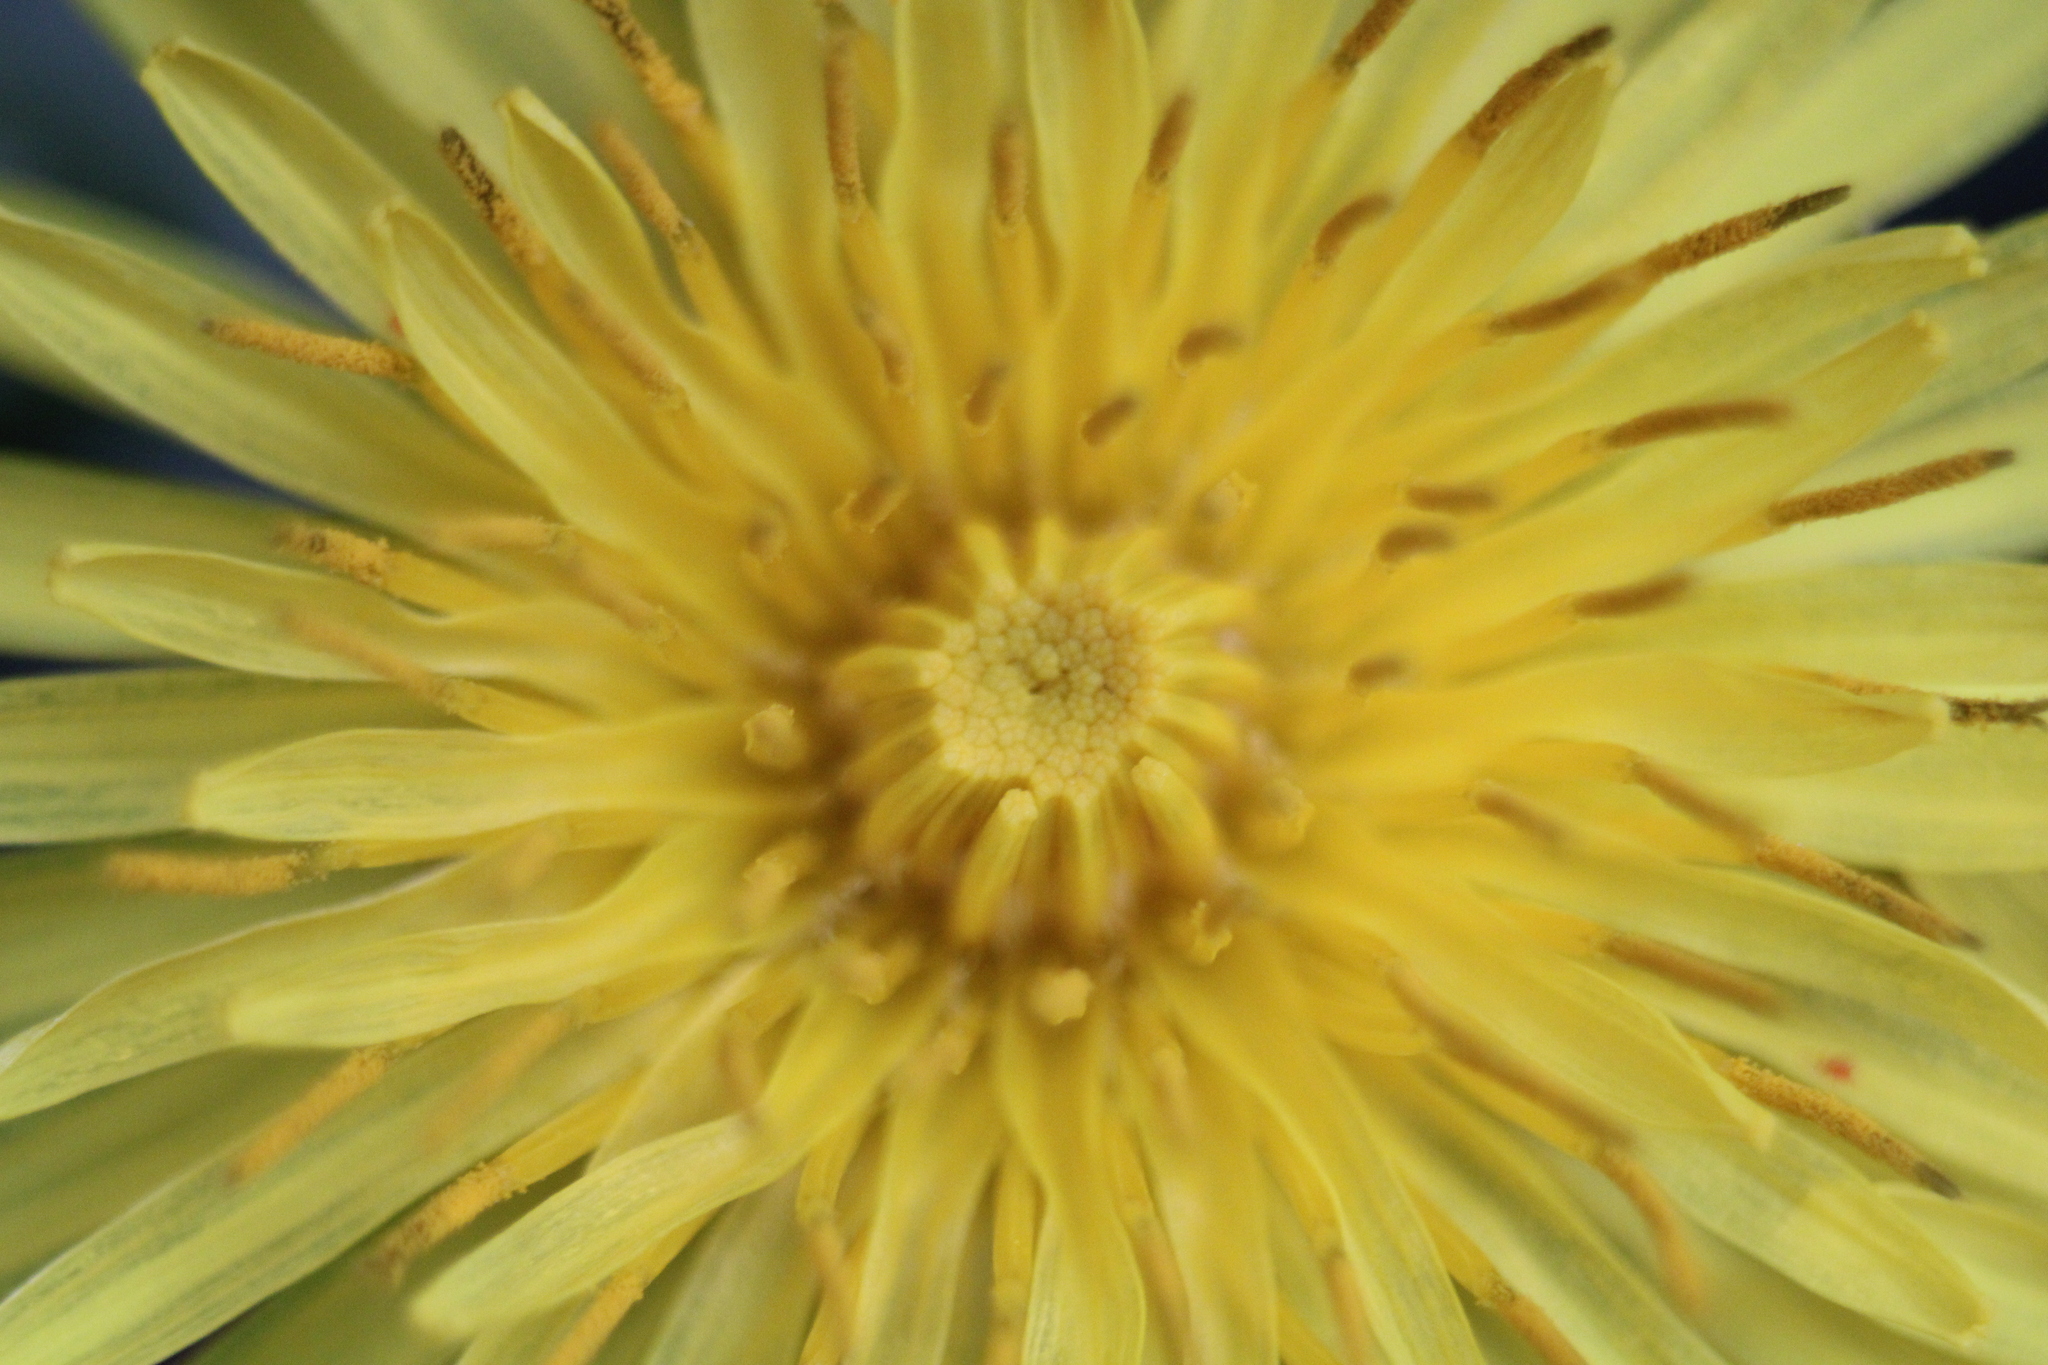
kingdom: Plantae
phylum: Tracheophyta
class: Magnoliopsida
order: Asterales
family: Asteraceae
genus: Taraxacum
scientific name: Taraxacum officinale
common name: Common dandelion
